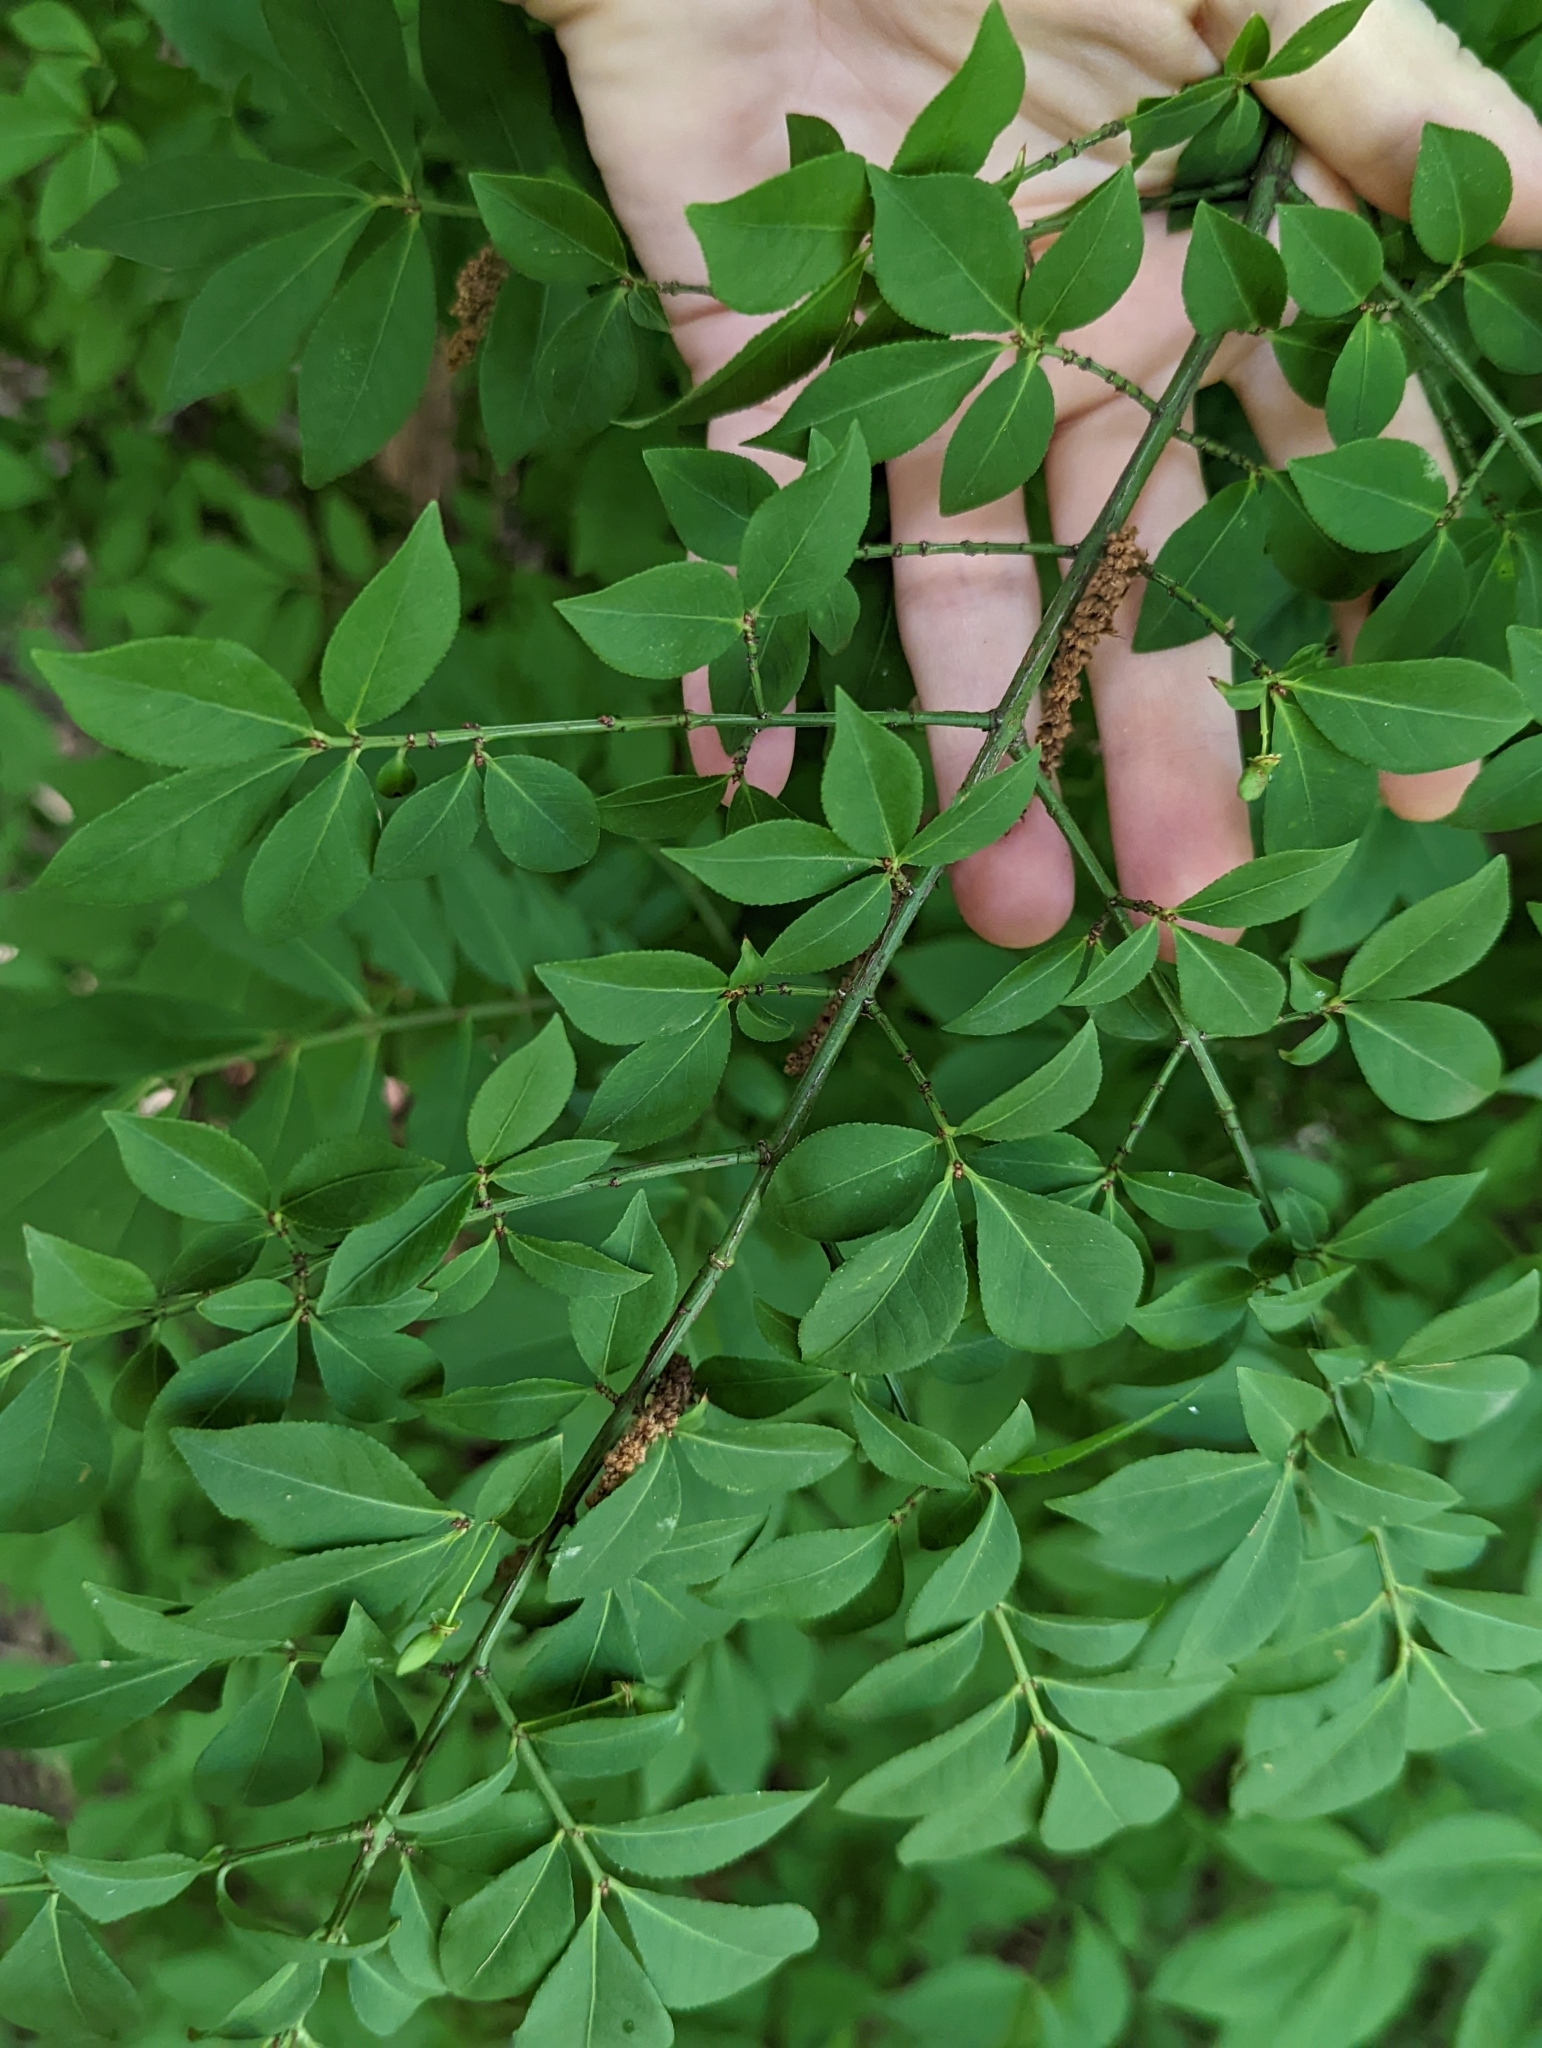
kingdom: Plantae
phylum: Tracheophyta
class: Magnoliopsida
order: Celastrales
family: Celastraceae
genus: Euonymus
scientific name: Euonymus alatus
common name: Winged euonymus
